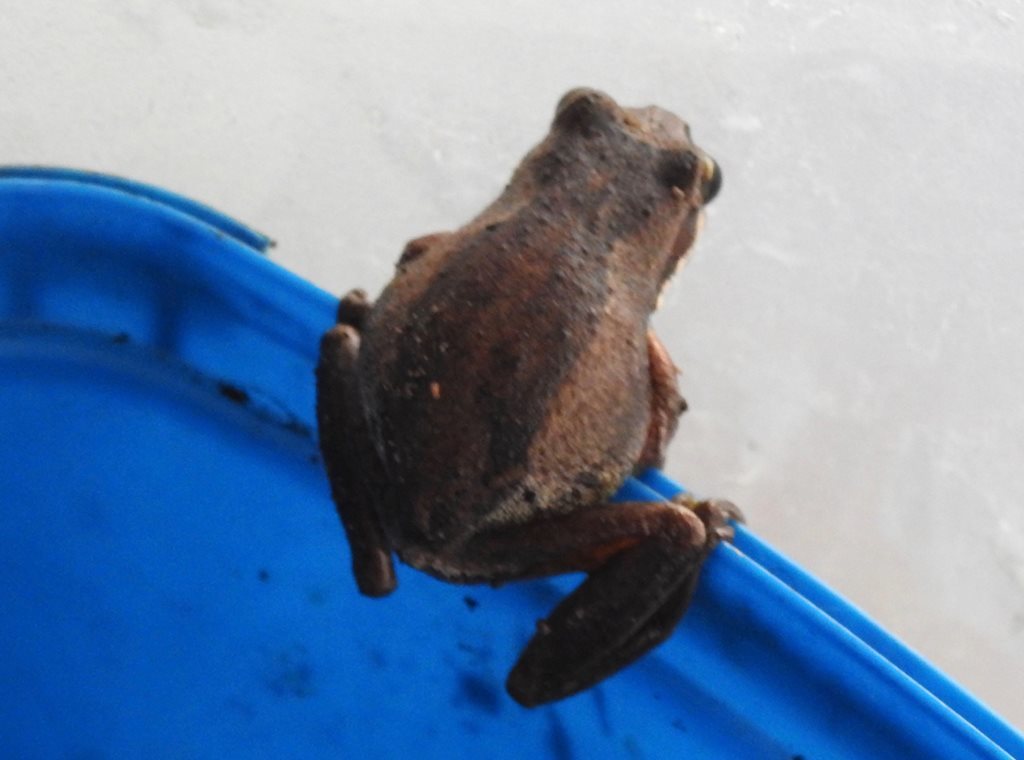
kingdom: Animalia
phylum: Chordata
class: Amphibia
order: Anura
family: Pelodryadidae
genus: Litoria
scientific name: Litoria ewingii
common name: Southern brown tree frog
